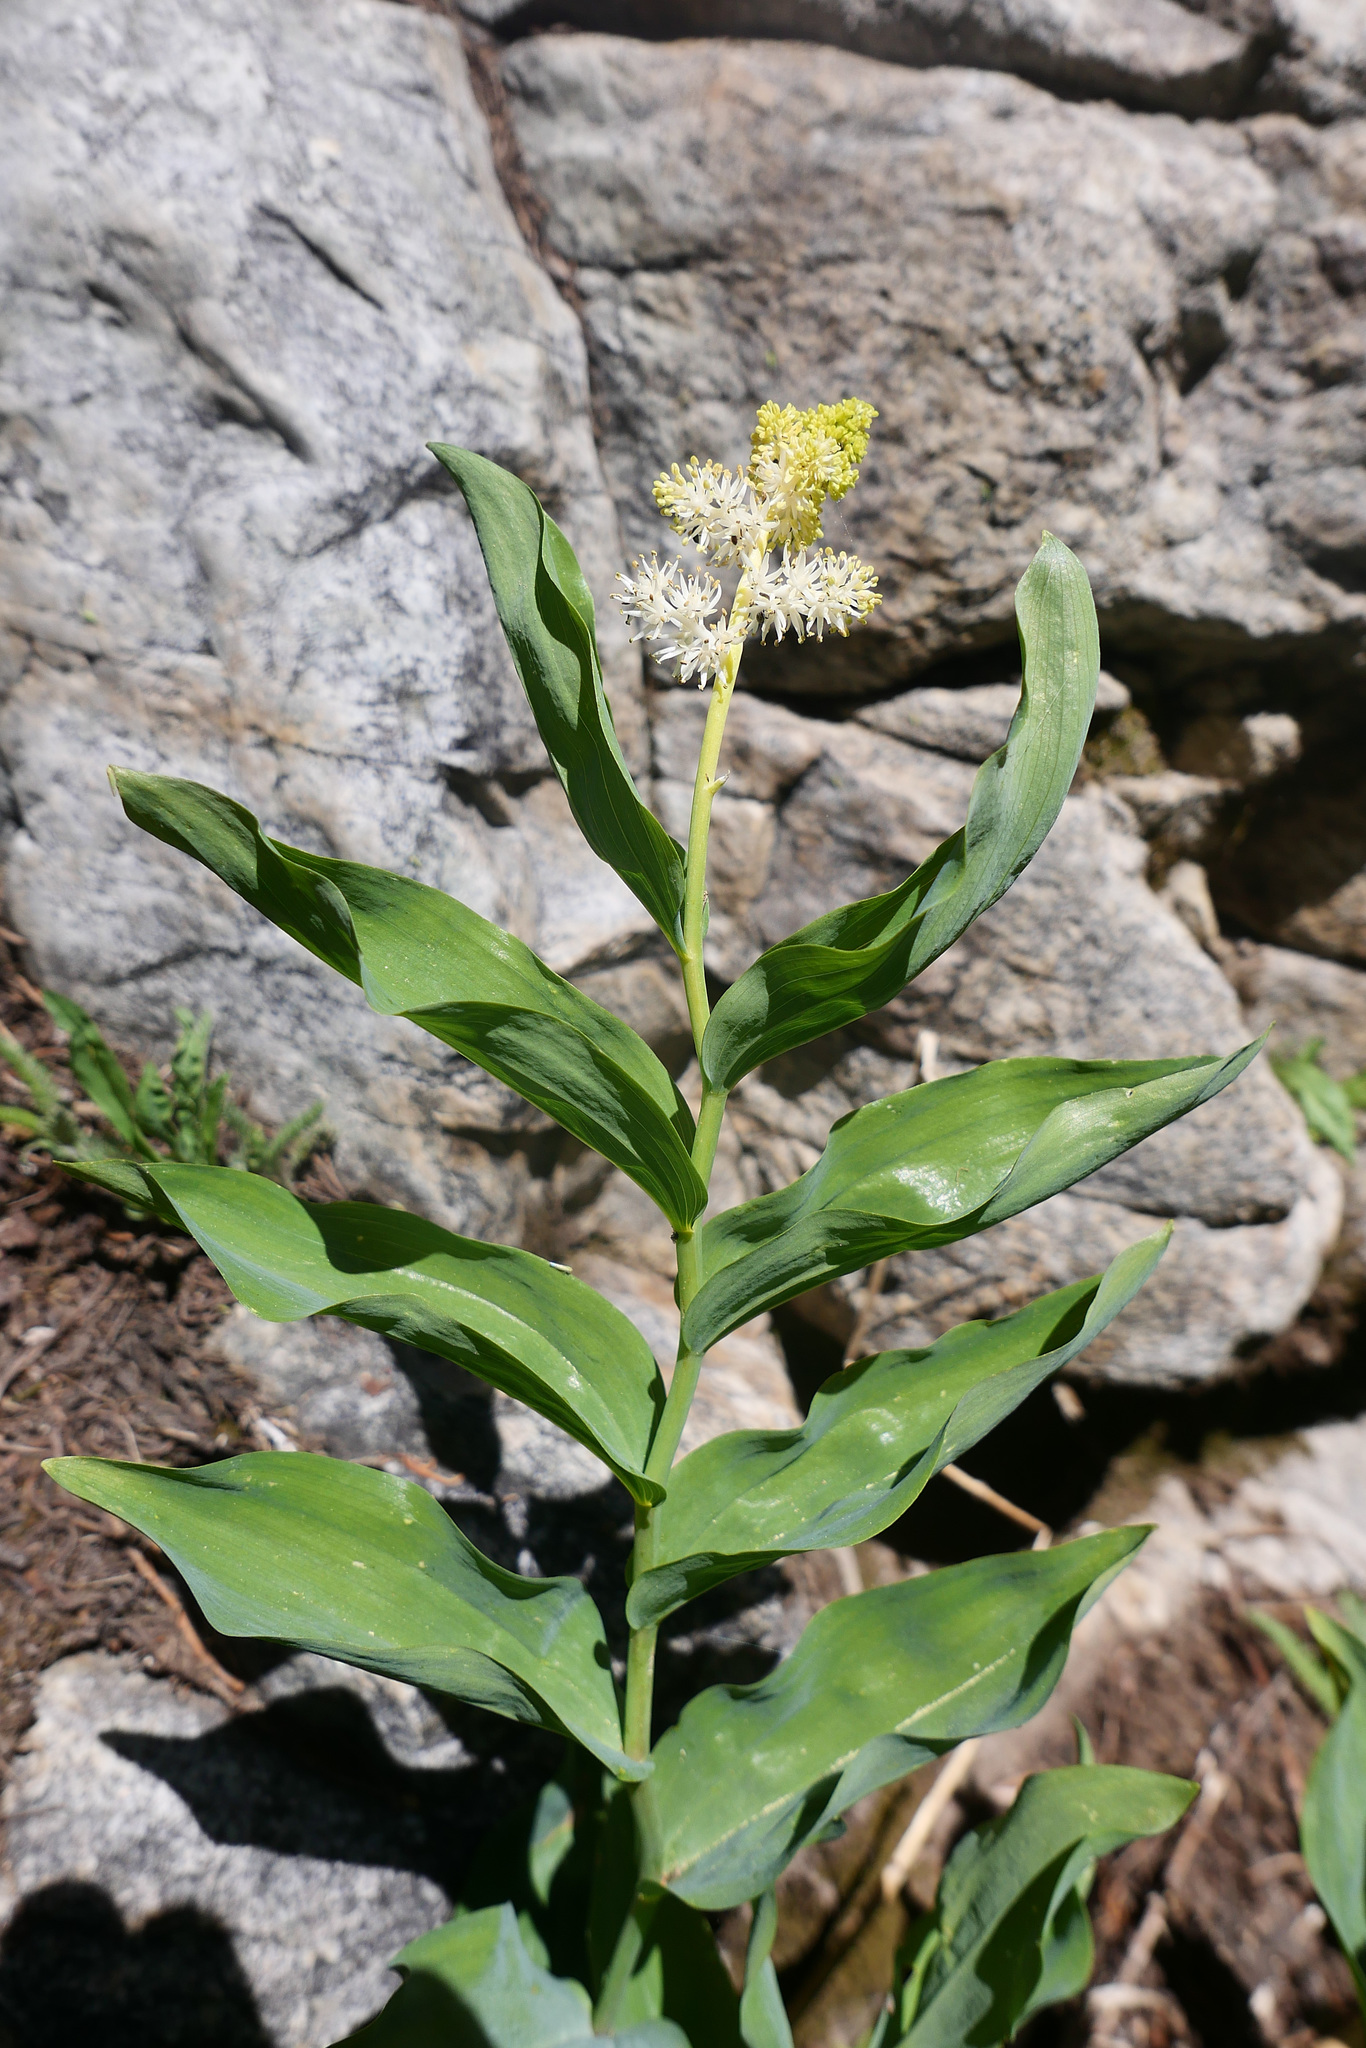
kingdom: Plantae
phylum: Tracheophyta
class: Liliopsida
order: Asparagales
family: Asparagaceae
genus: Maianthemum
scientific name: Maianthemum racemosum
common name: False spikenard
